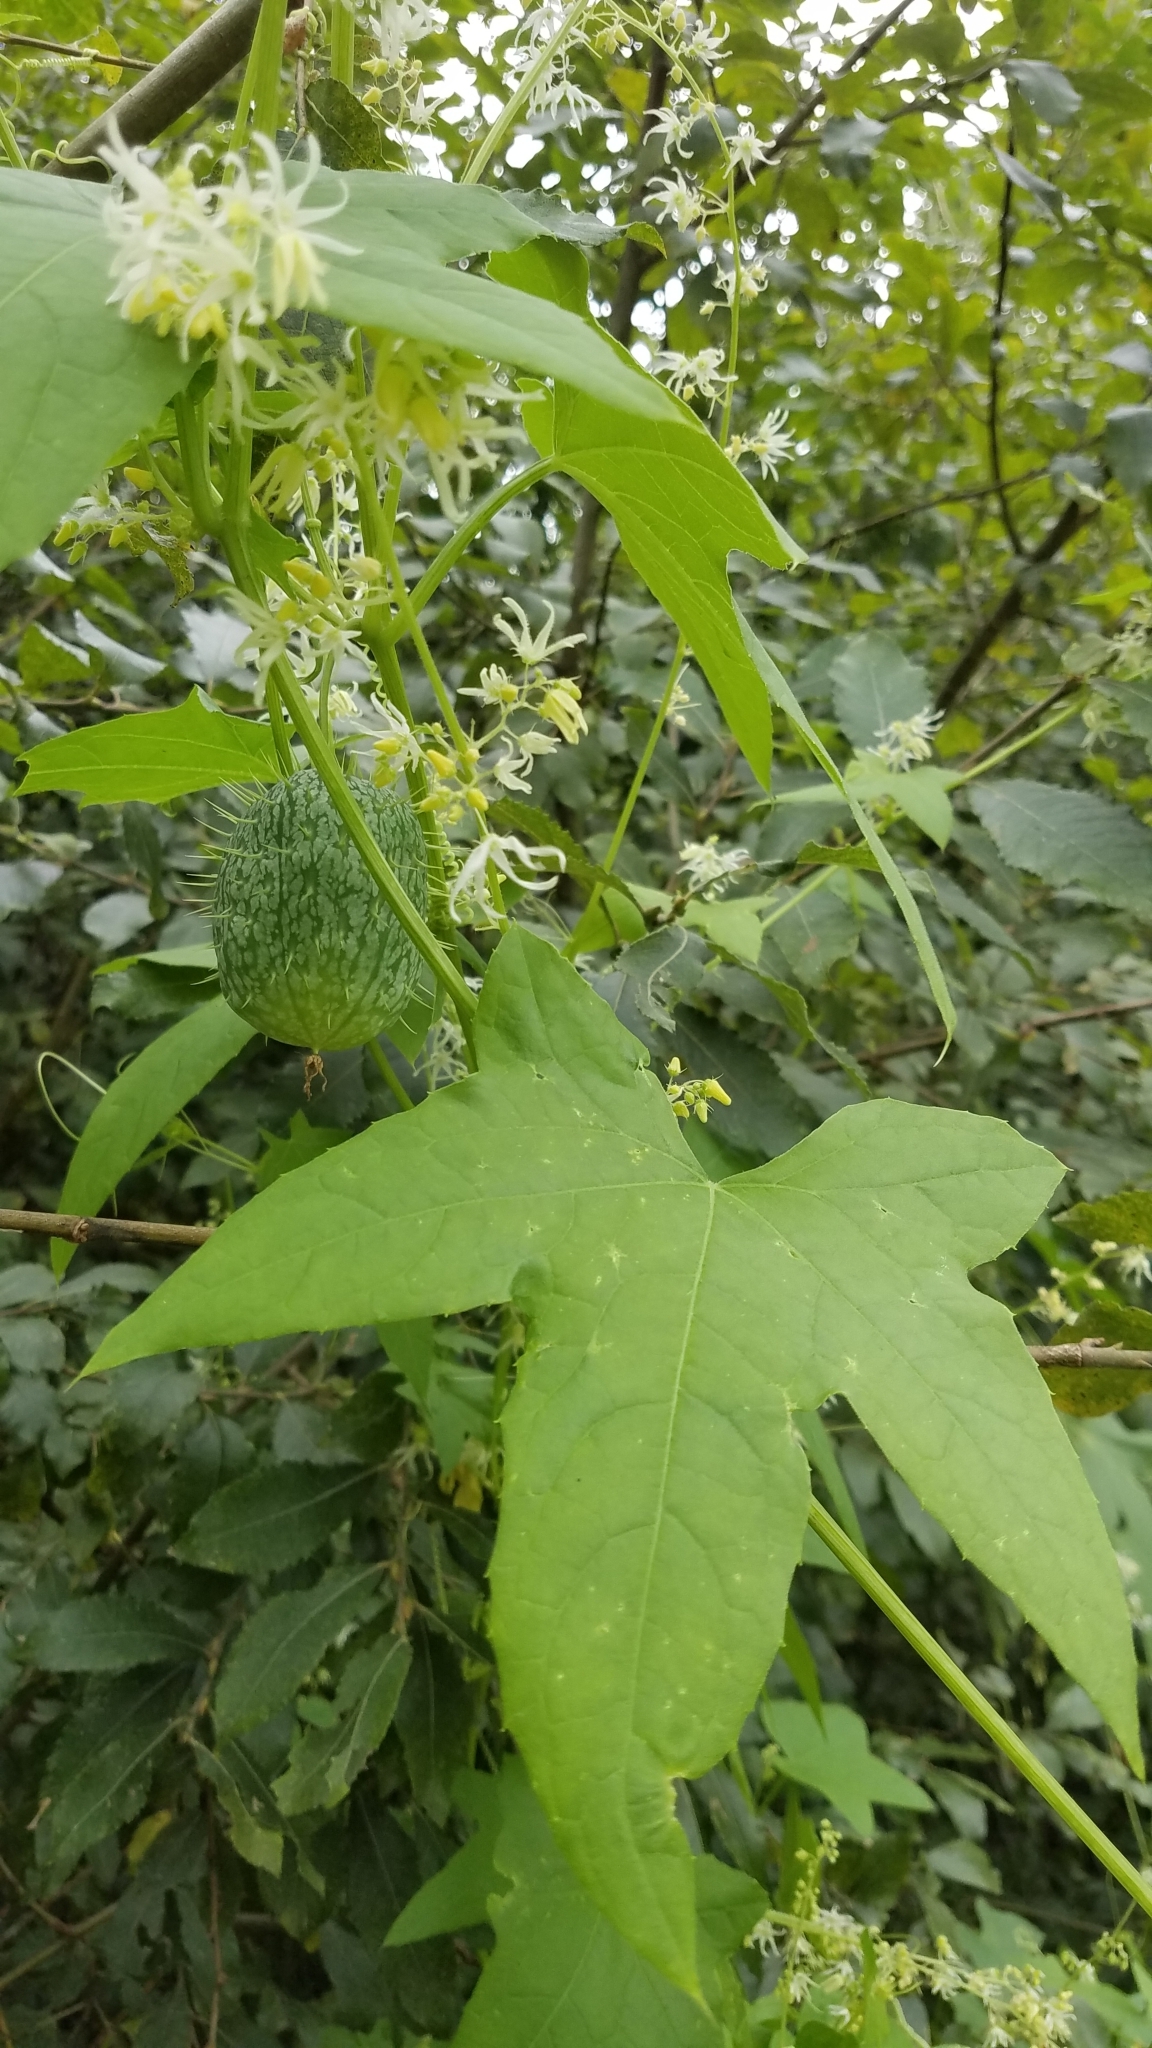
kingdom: Plantae
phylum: Tracheophyta
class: Magnoliopsida
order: Cucurbitales
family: Cucurbitaceae
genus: Echinocystis
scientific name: Echinocystis lobata
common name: Wild cucumber
